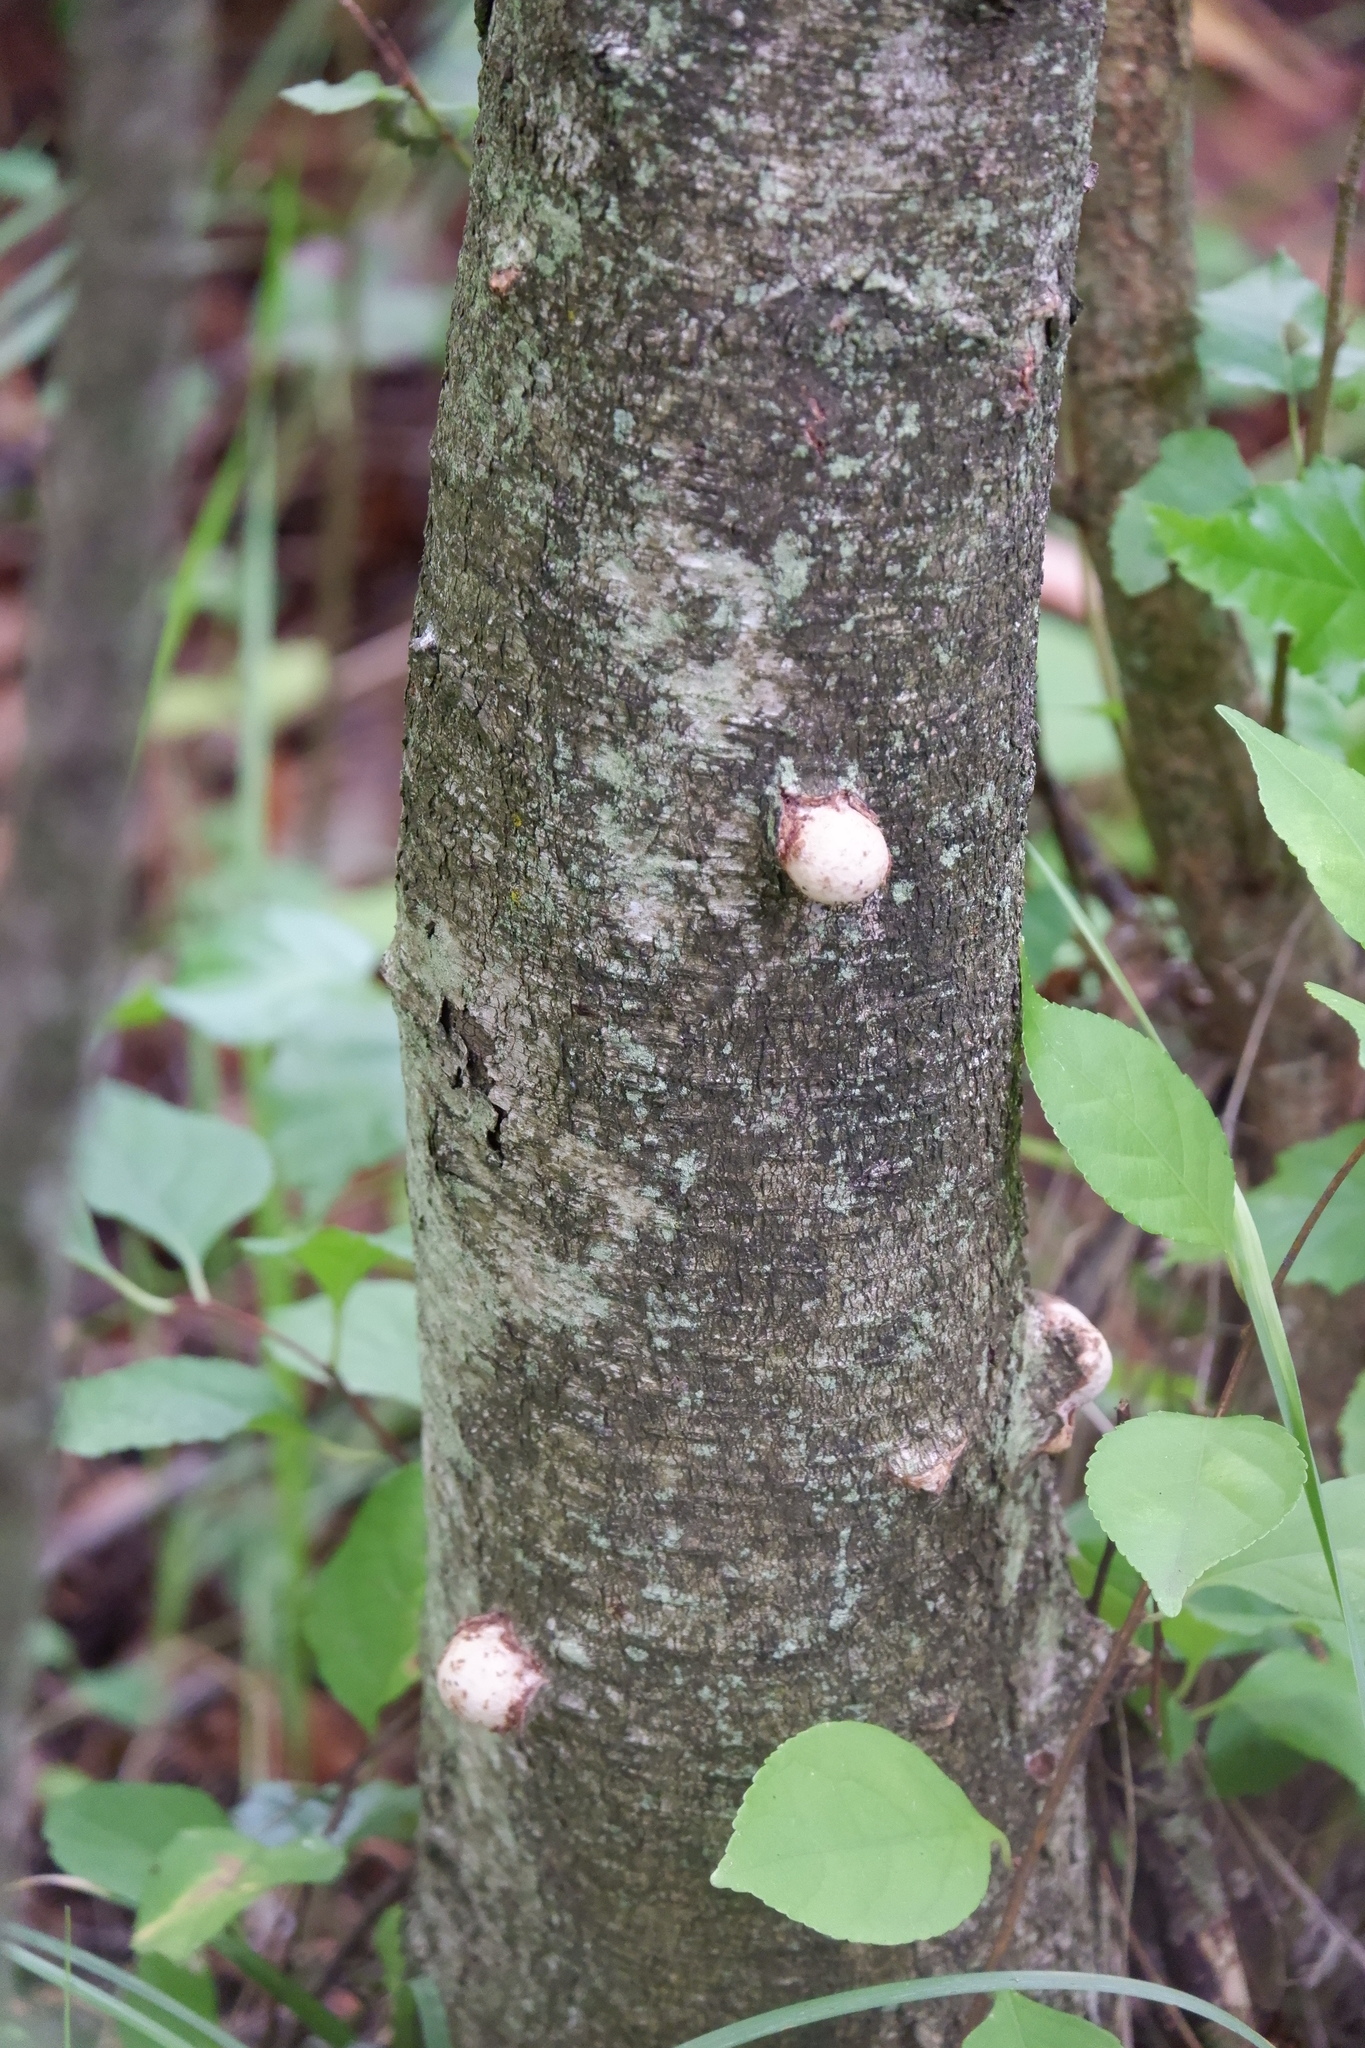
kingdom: Fungi
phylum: Basidiomycota
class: Agaricomycetes
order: Polyporales
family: Fomitopsidaceae
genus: Fomitopsis
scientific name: Fomitopsis betulina
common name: Birch polypore
